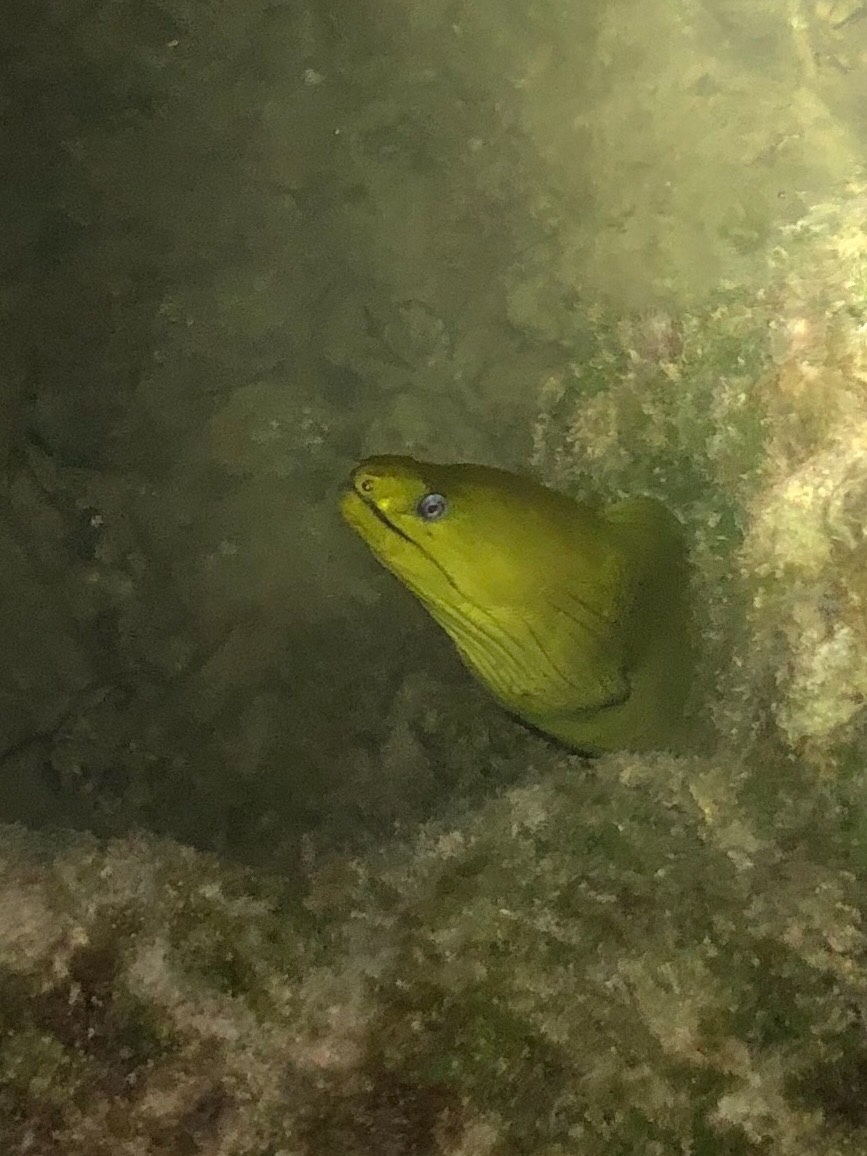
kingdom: Animalia
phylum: Chordata
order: Anguilliformes
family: Muraenidae
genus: Gymnothorax
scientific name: Gymnothorax funebris
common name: Green moray
